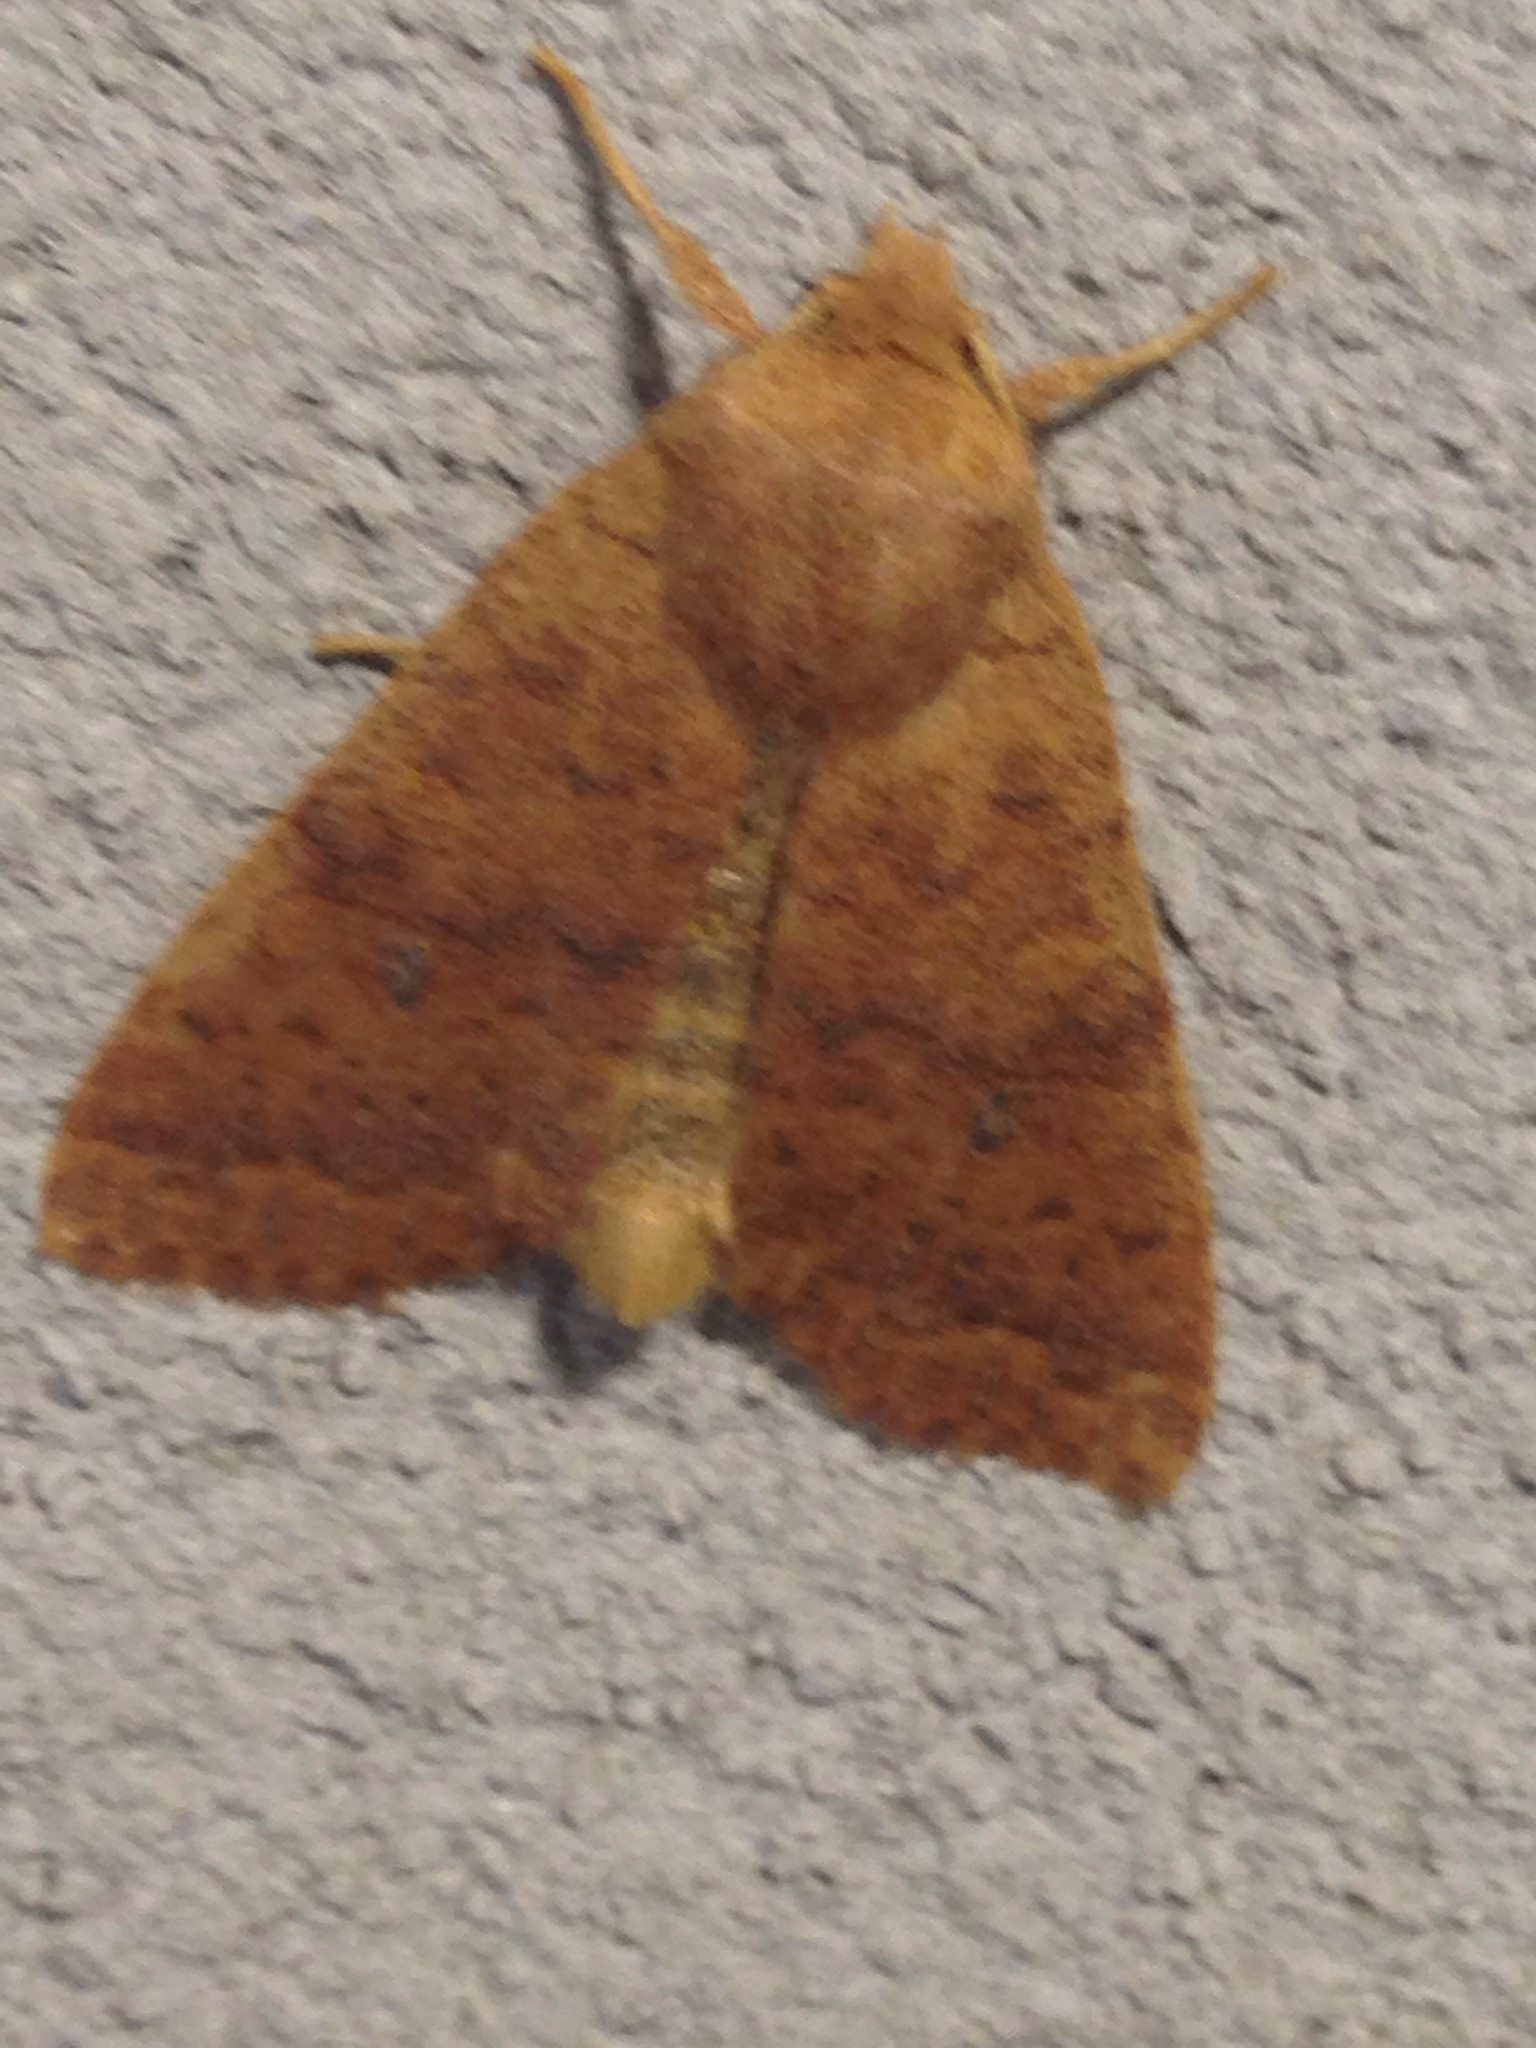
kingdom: Animalia
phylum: Arthropoda
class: Insecta
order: Lepidoptera
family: Noctuidae
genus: Agrochola
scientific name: Agrochola bicolorago
